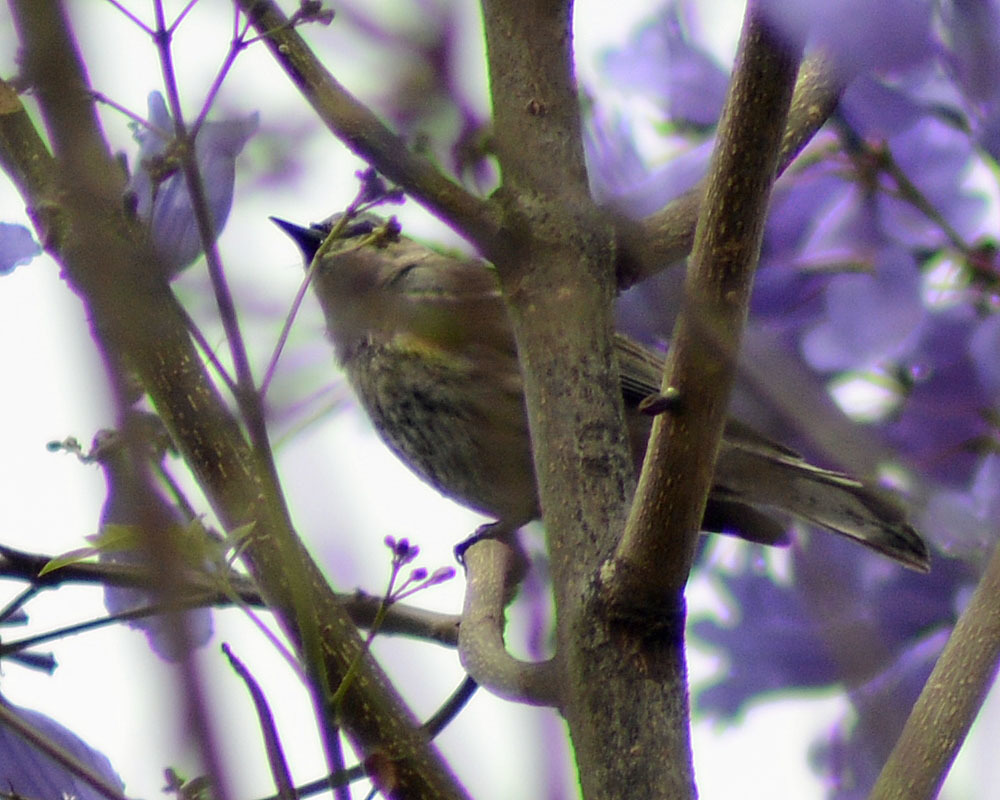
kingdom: Animalia
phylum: Chordata
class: Aves
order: Passeriformes
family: Parulidae
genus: Setophaga
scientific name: Setophaga coronata
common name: Myrtle warbler
